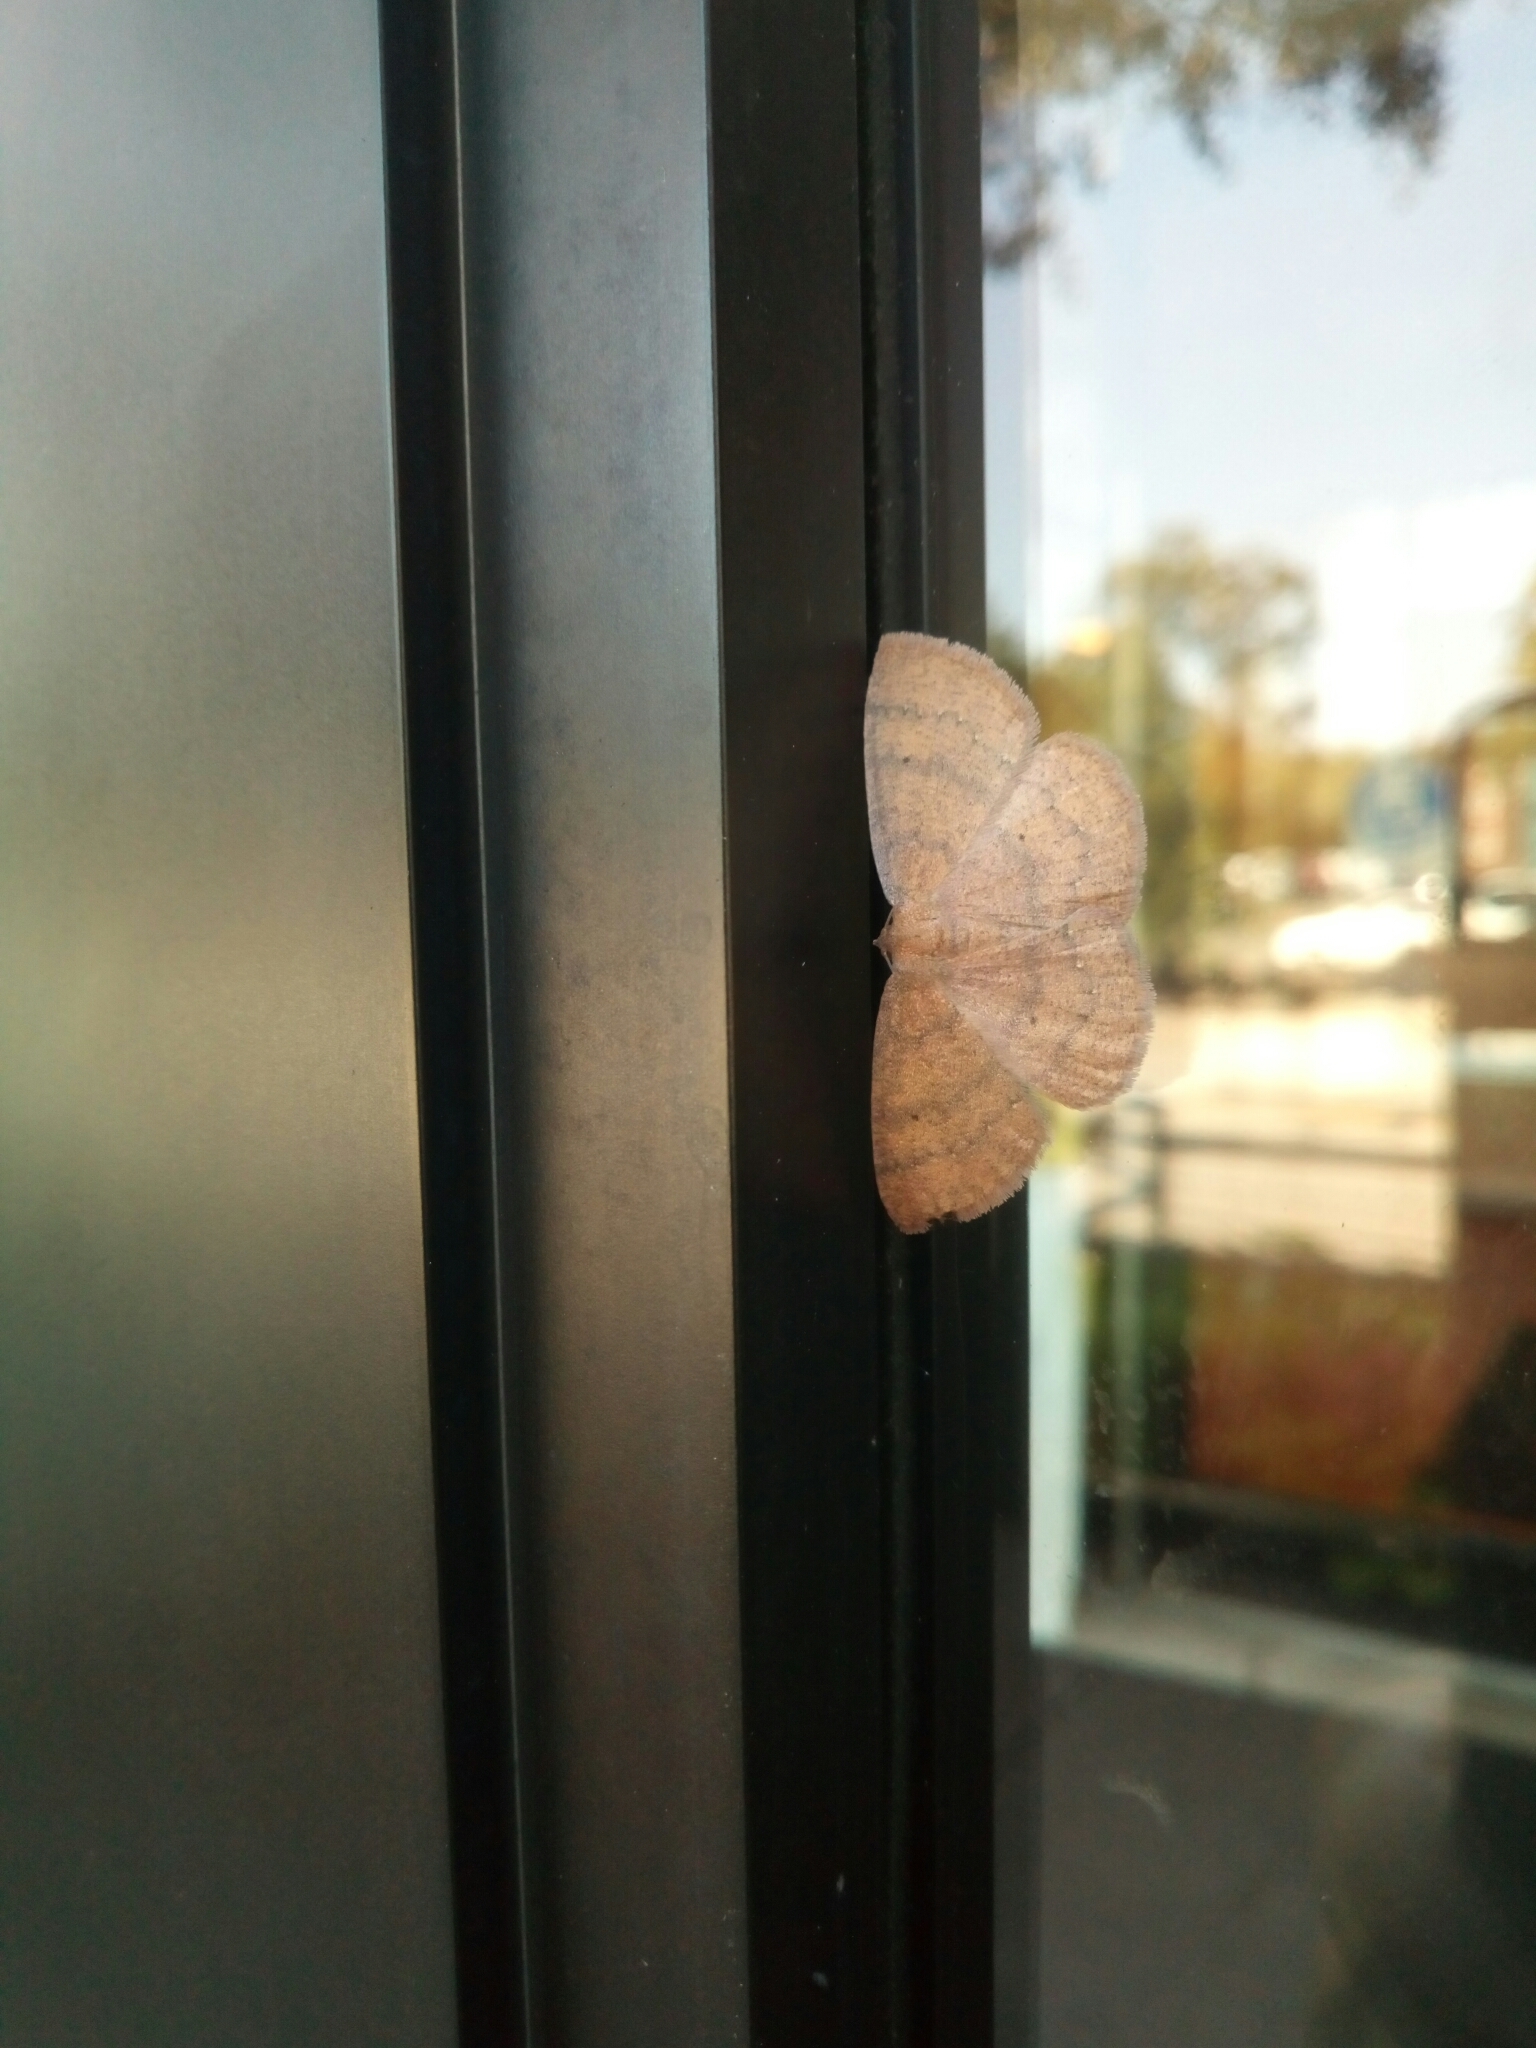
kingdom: Animalia
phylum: Arthropoda
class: Insecta
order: Lepidoptera
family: Geometridae
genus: Ilexia
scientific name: Ilexia intractata
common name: Black-dotted ruddy moth
